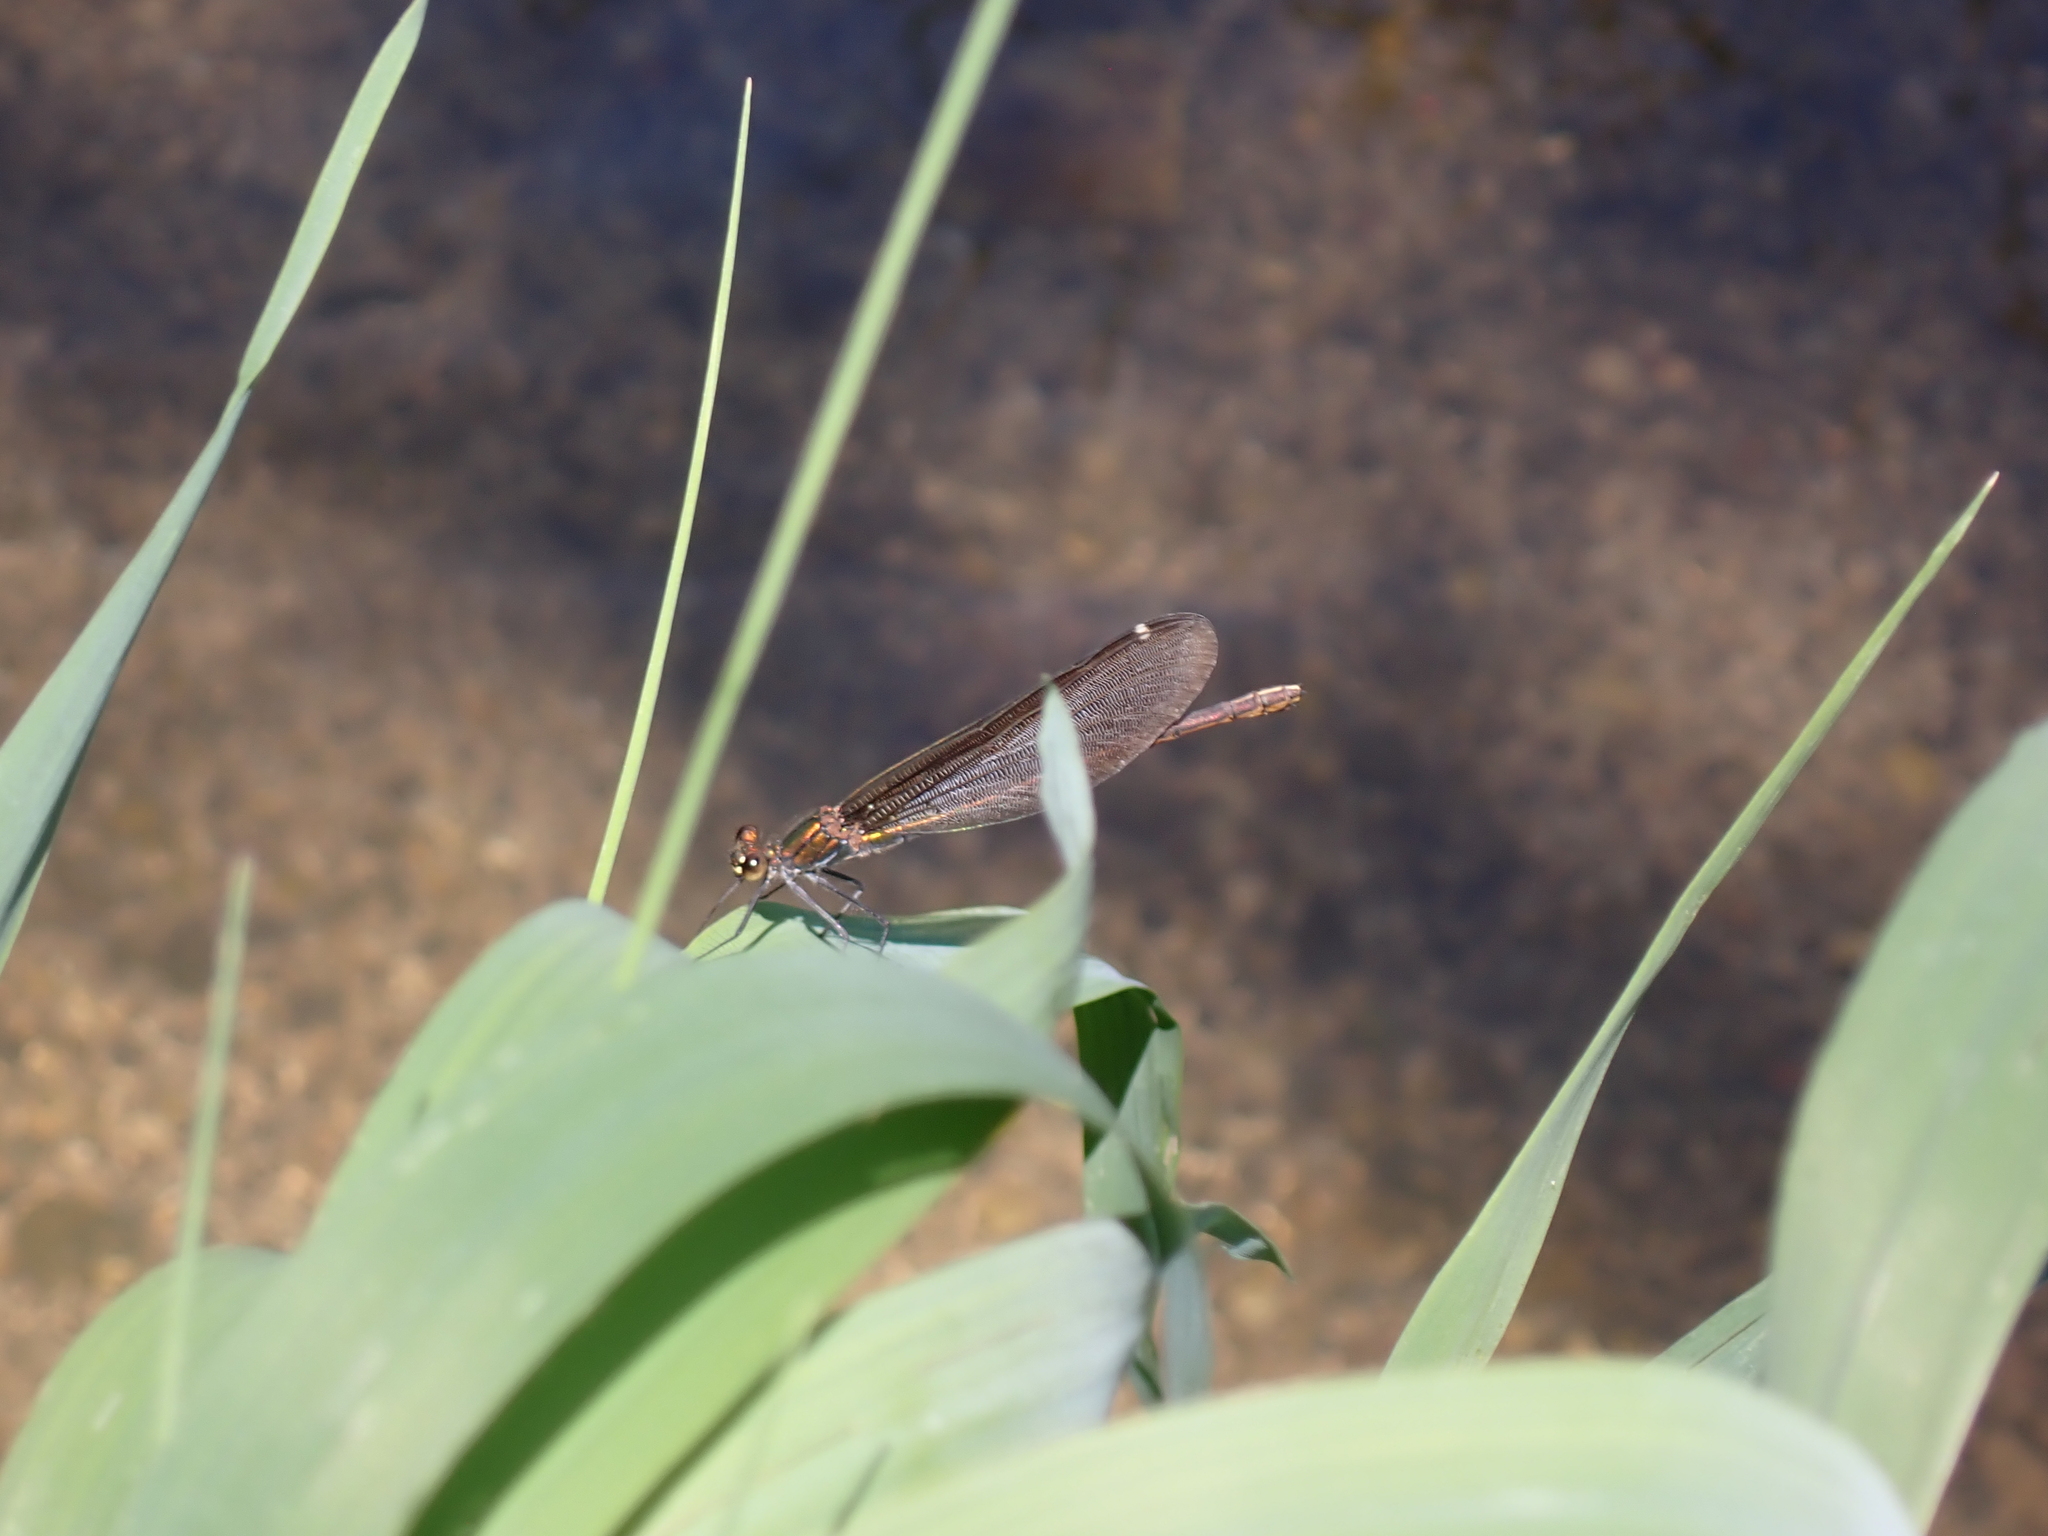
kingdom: Animalia
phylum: Arthropoda
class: Insecta
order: Odonata
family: Calopterygidae
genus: Calopteryx
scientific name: Calopteryx virgo
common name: Beautiful demoiselle
